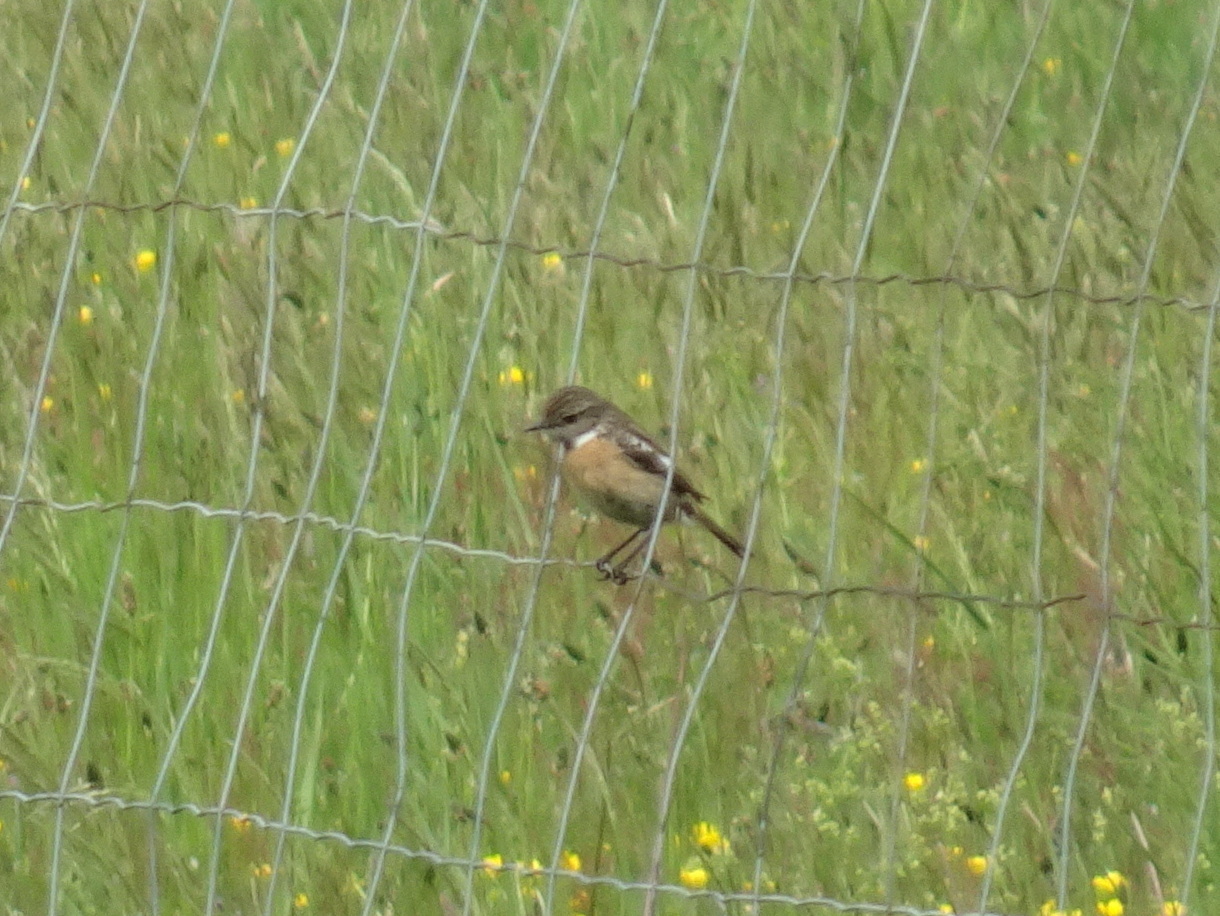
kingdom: Animalia
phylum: Chordata
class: Aves
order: Passeriformes
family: Muscicapidae
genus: Saxicola
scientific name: Saxicola rubicola
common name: European stonechat
